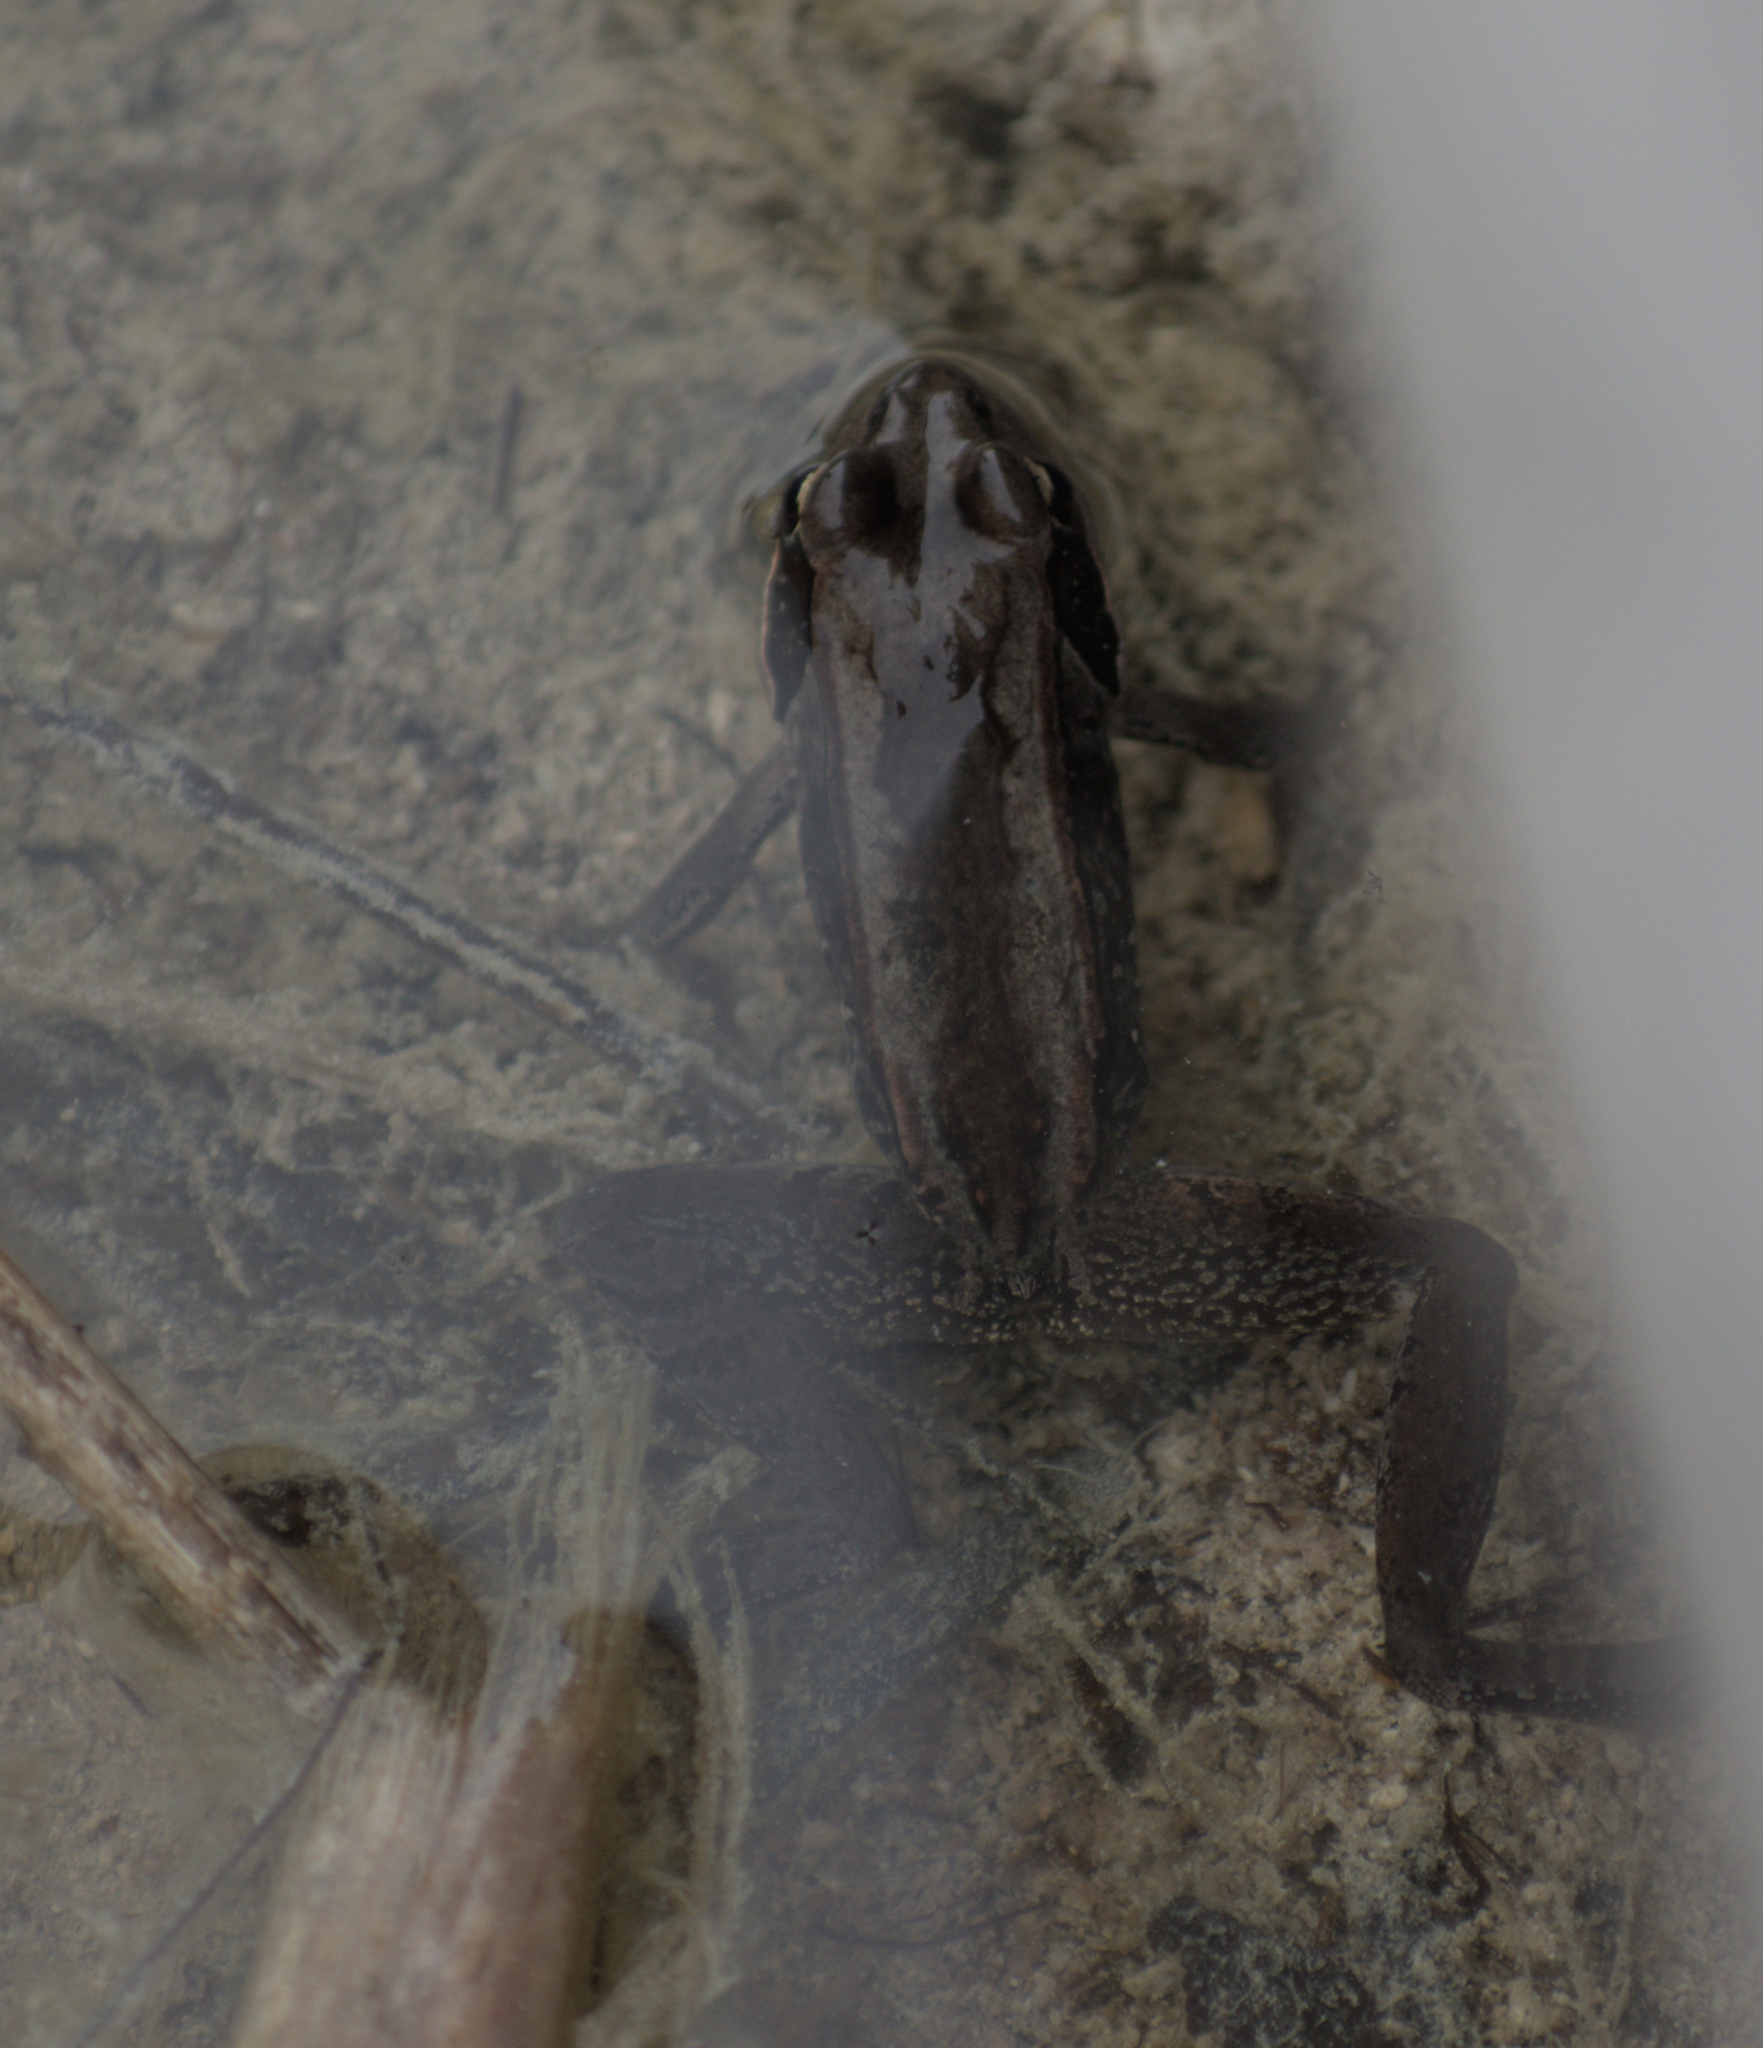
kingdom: Animalia
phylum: Chordata
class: Amphibia
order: Anura
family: Ranidae
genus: Lithobates
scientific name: Lithobates sylvaticus
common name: Wood frog
